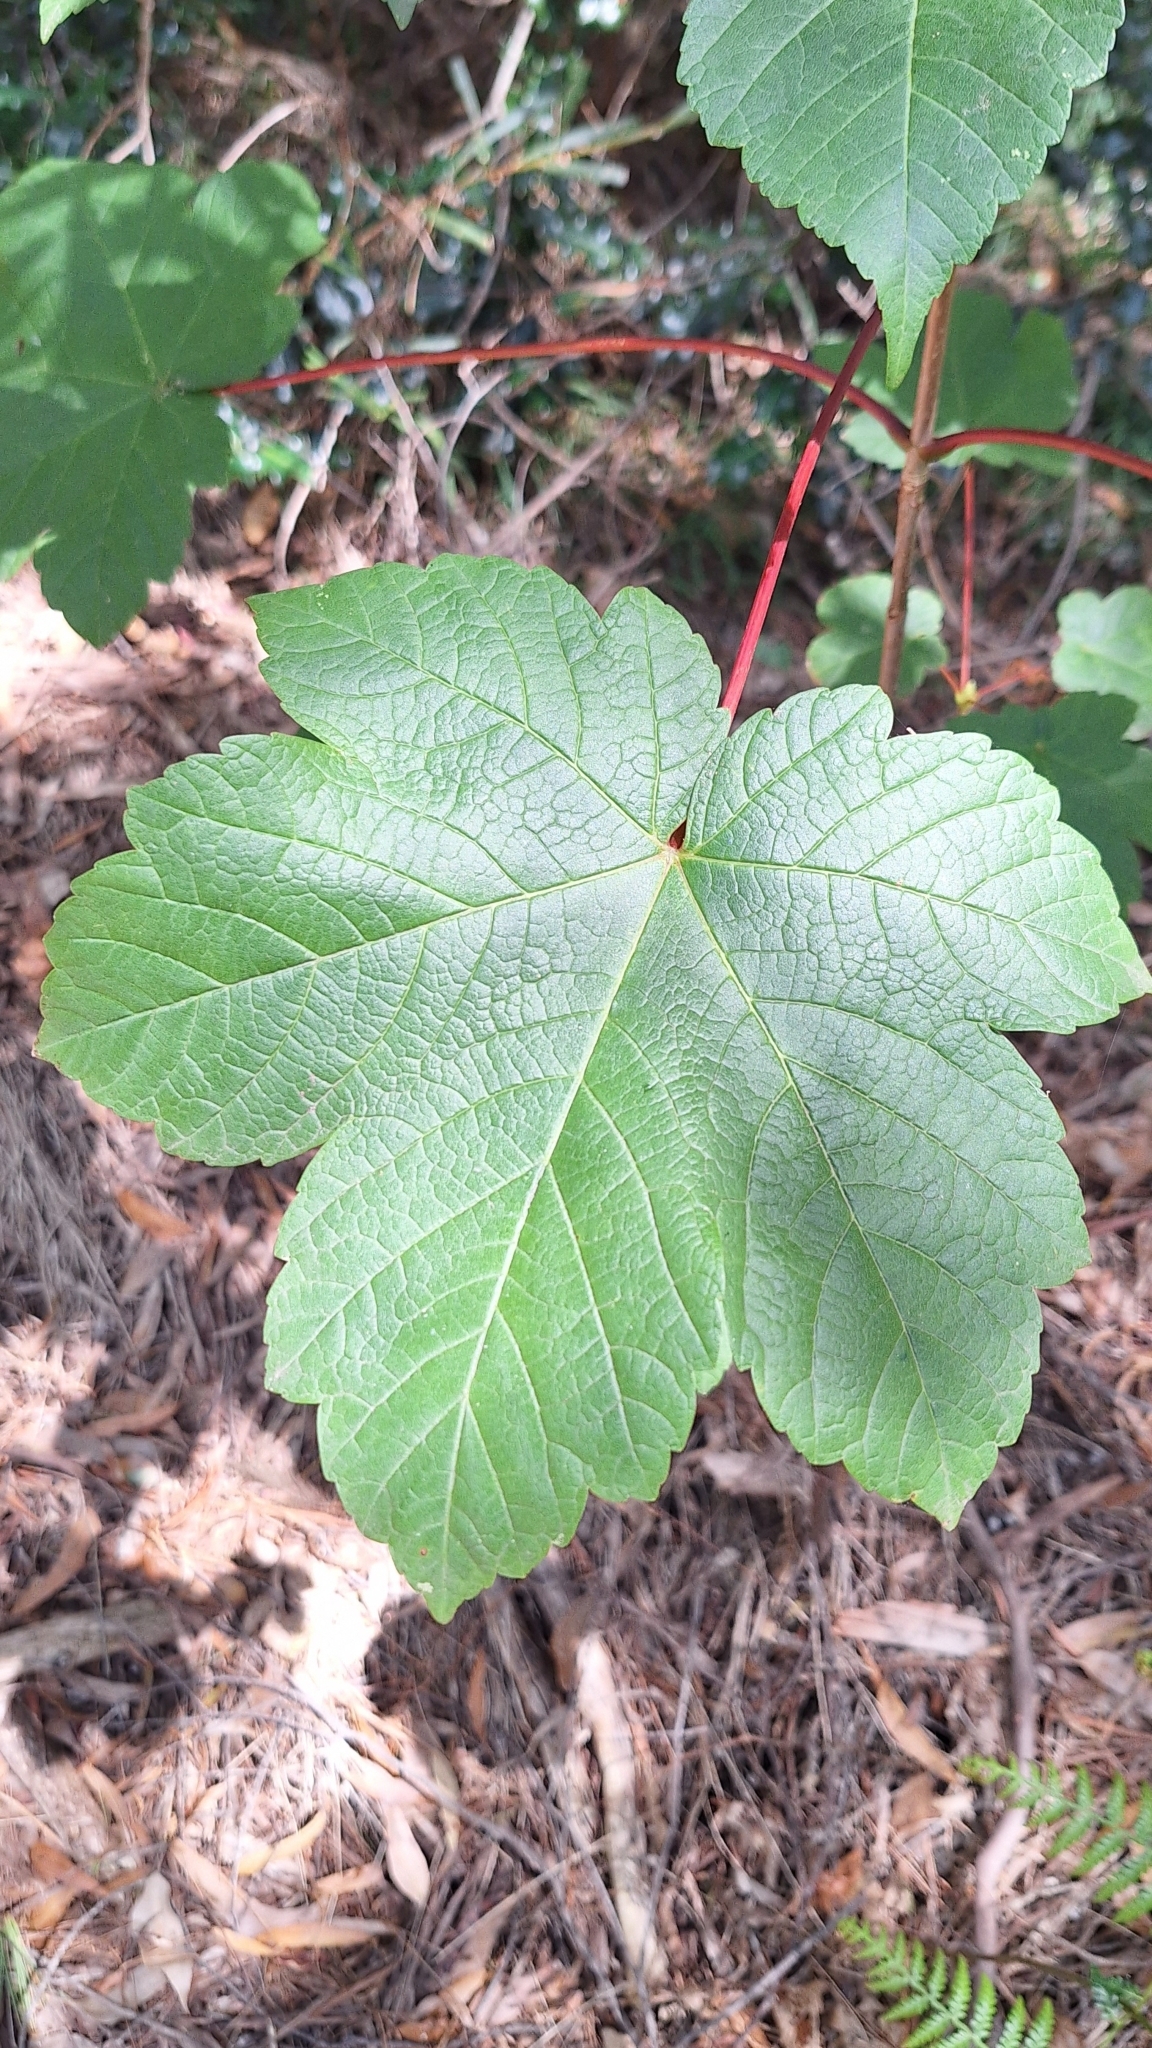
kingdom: Plantae
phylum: Tracheophyta
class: Magnoliopsida
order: Sapindales
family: Sapindaceae
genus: Acer
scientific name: Acer pseudoplatanus
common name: Sycamore
